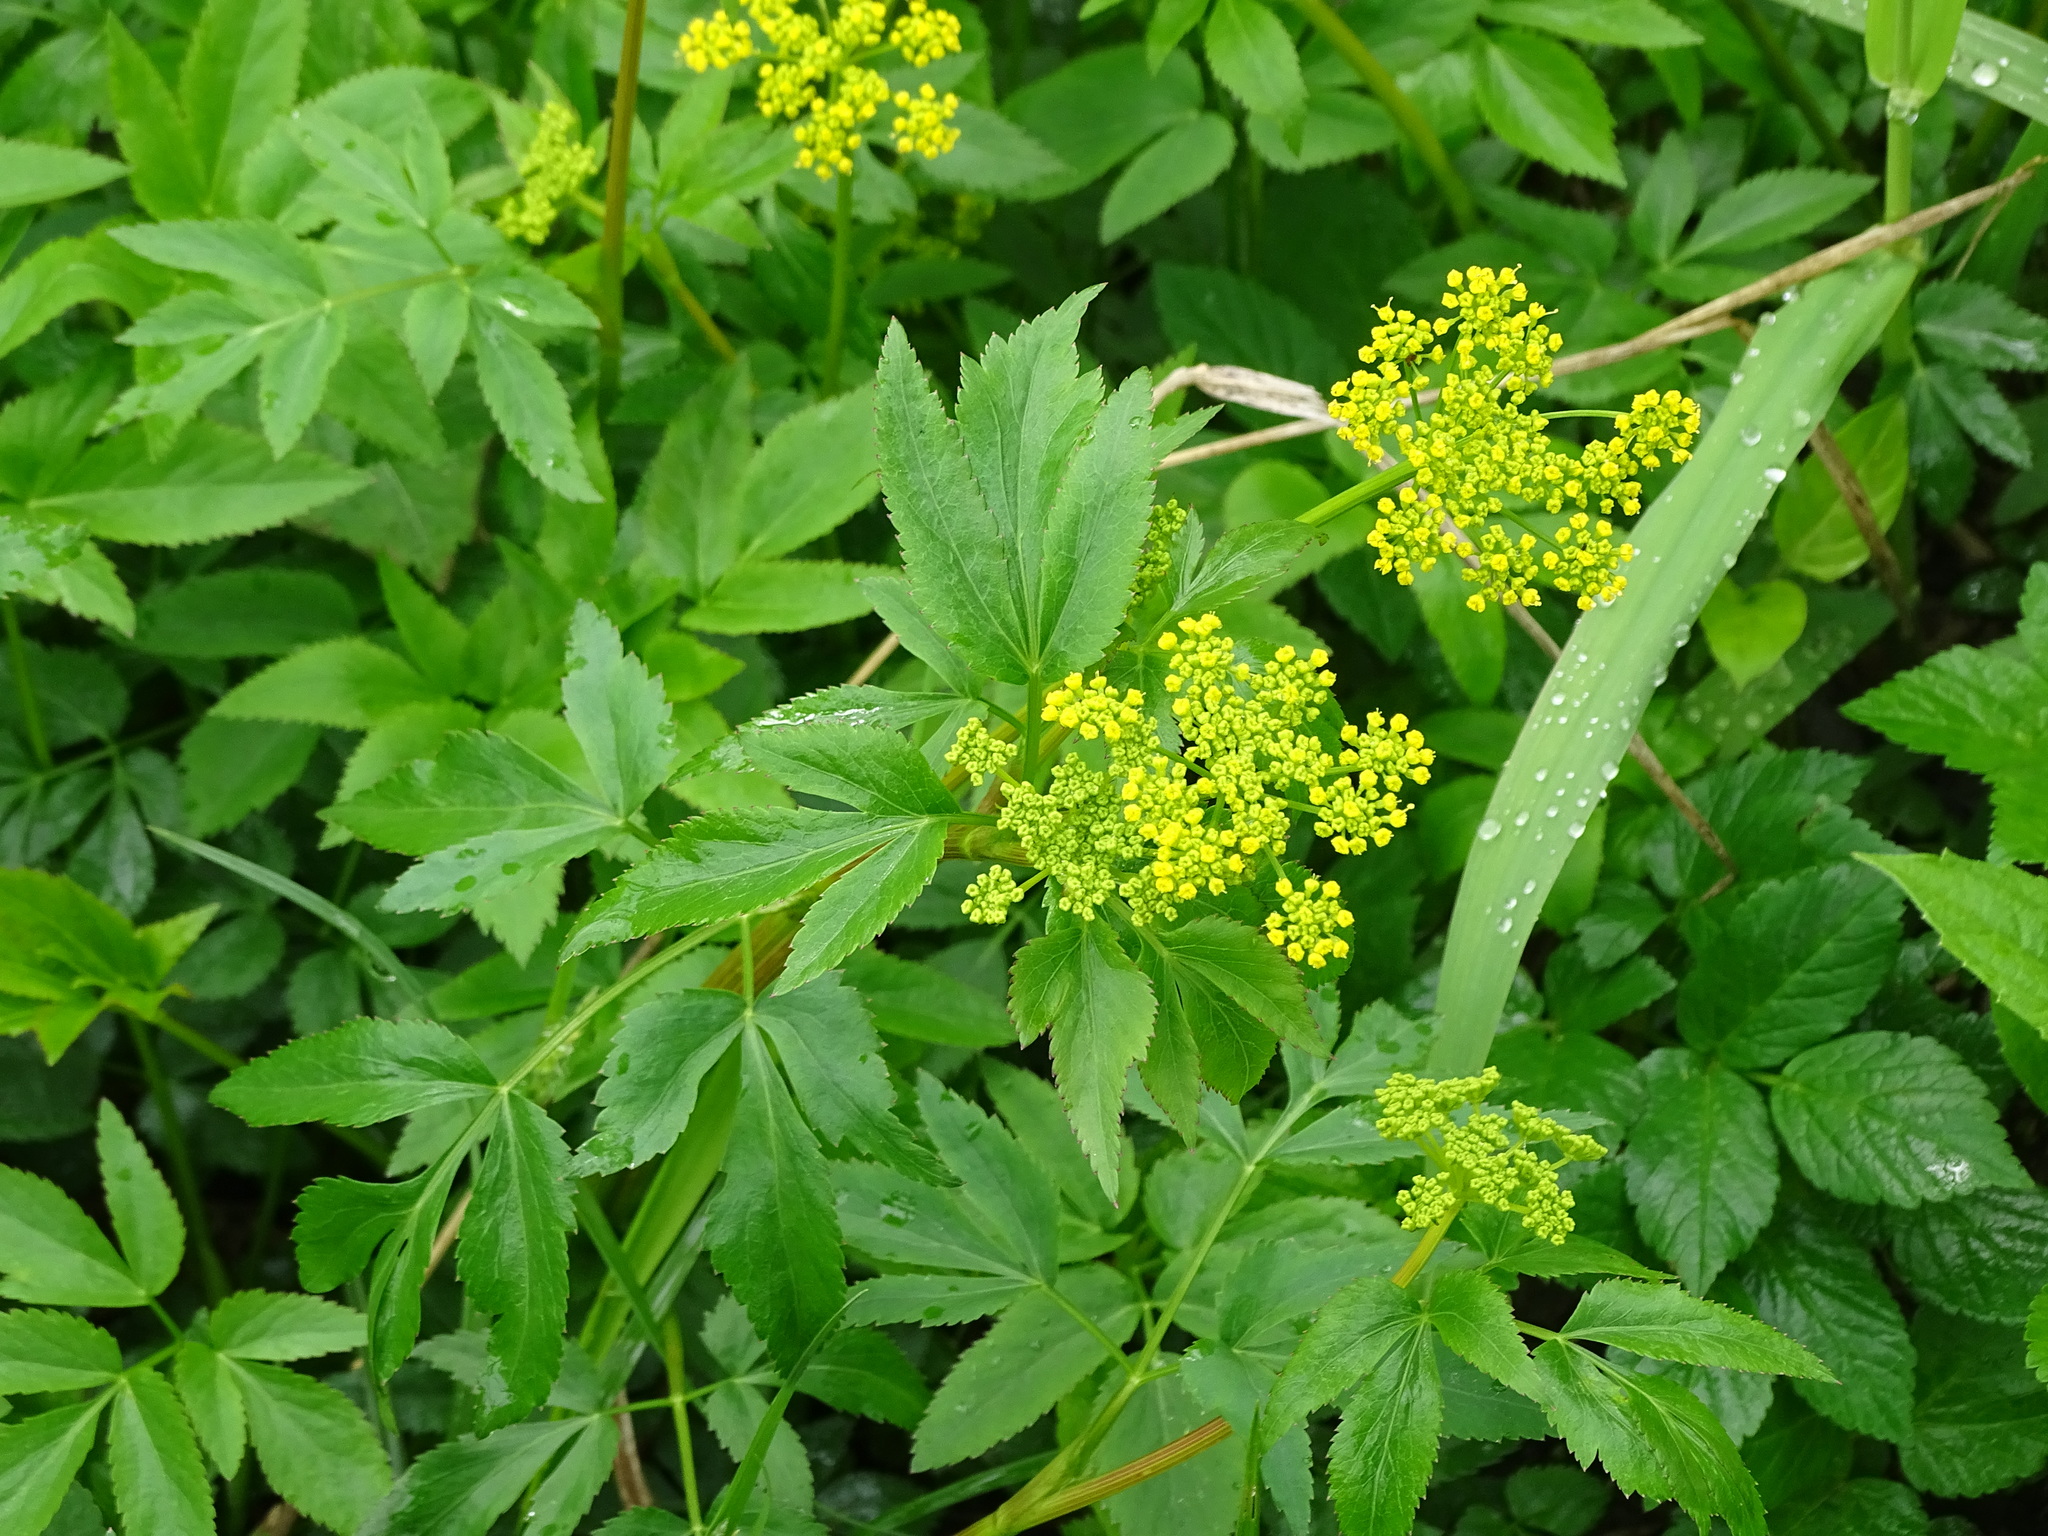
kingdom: Plantae
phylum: Tracheophyta
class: Magnoliopsida
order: Apiales
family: Apiaceae
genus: Zizia
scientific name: Zizia aurea
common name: Golden alexanders
